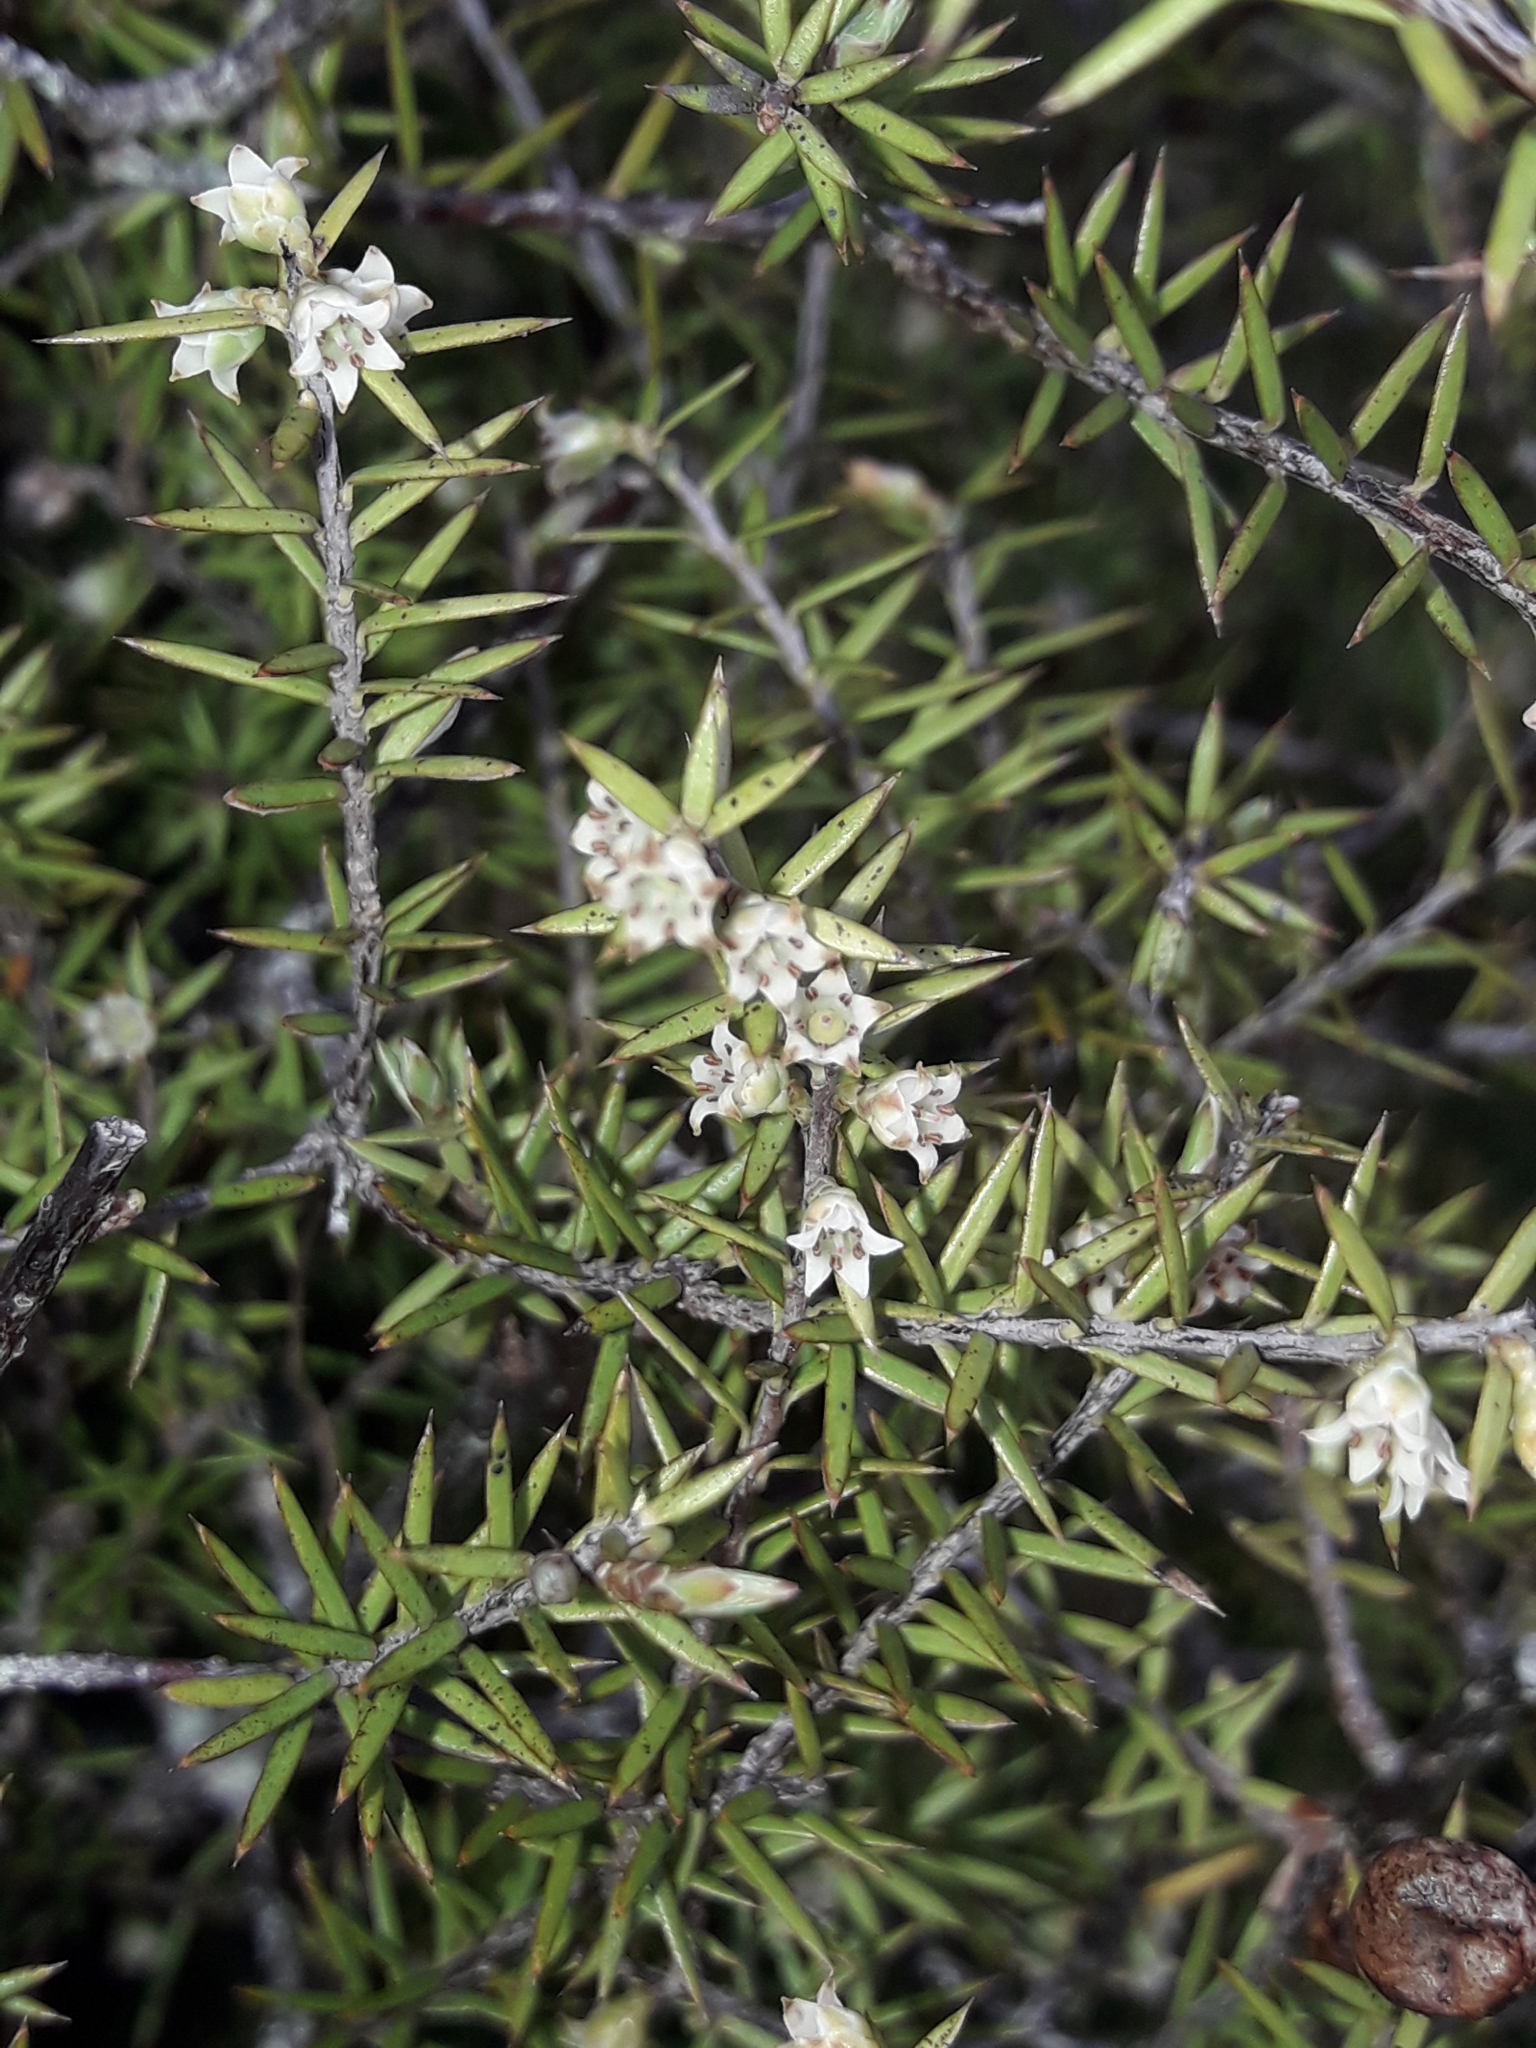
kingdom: Plantae
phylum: Tracheophyta
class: Magnoliopsida
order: Ericales
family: Ericaceae
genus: Leptecophylla
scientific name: Leptecophylla juniperina
